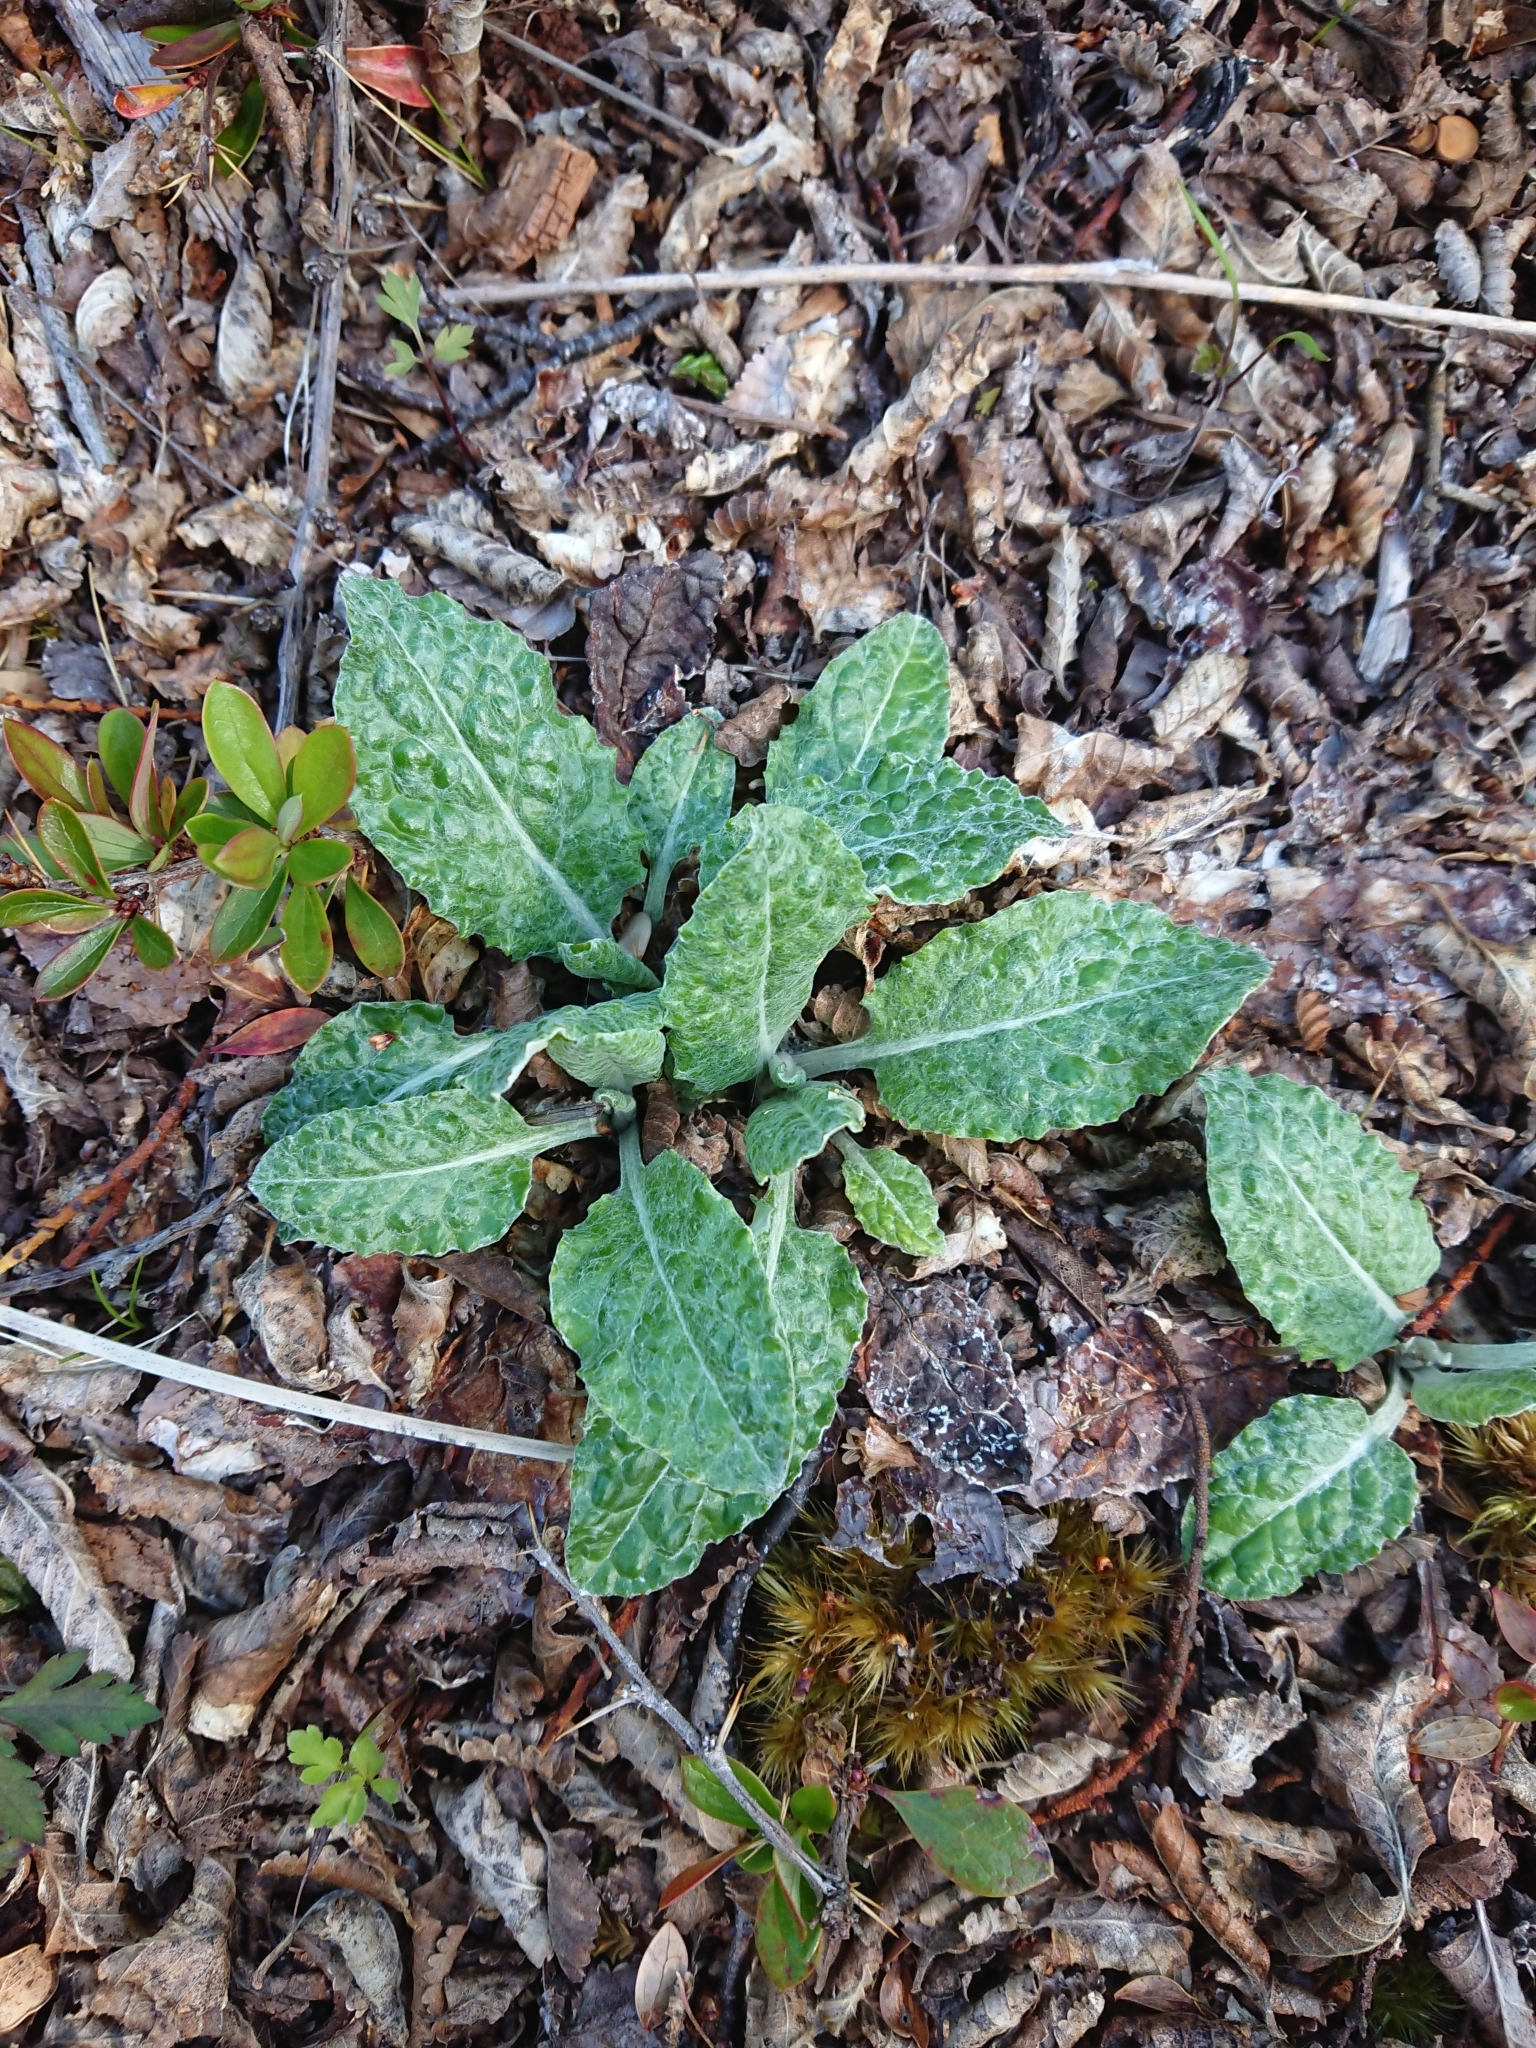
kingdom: Plantae
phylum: Tracheophyta
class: Magnoliopsida
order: Asterales
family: Asteraceae
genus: Adenocaulon
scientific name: Adenocaulon chilense
